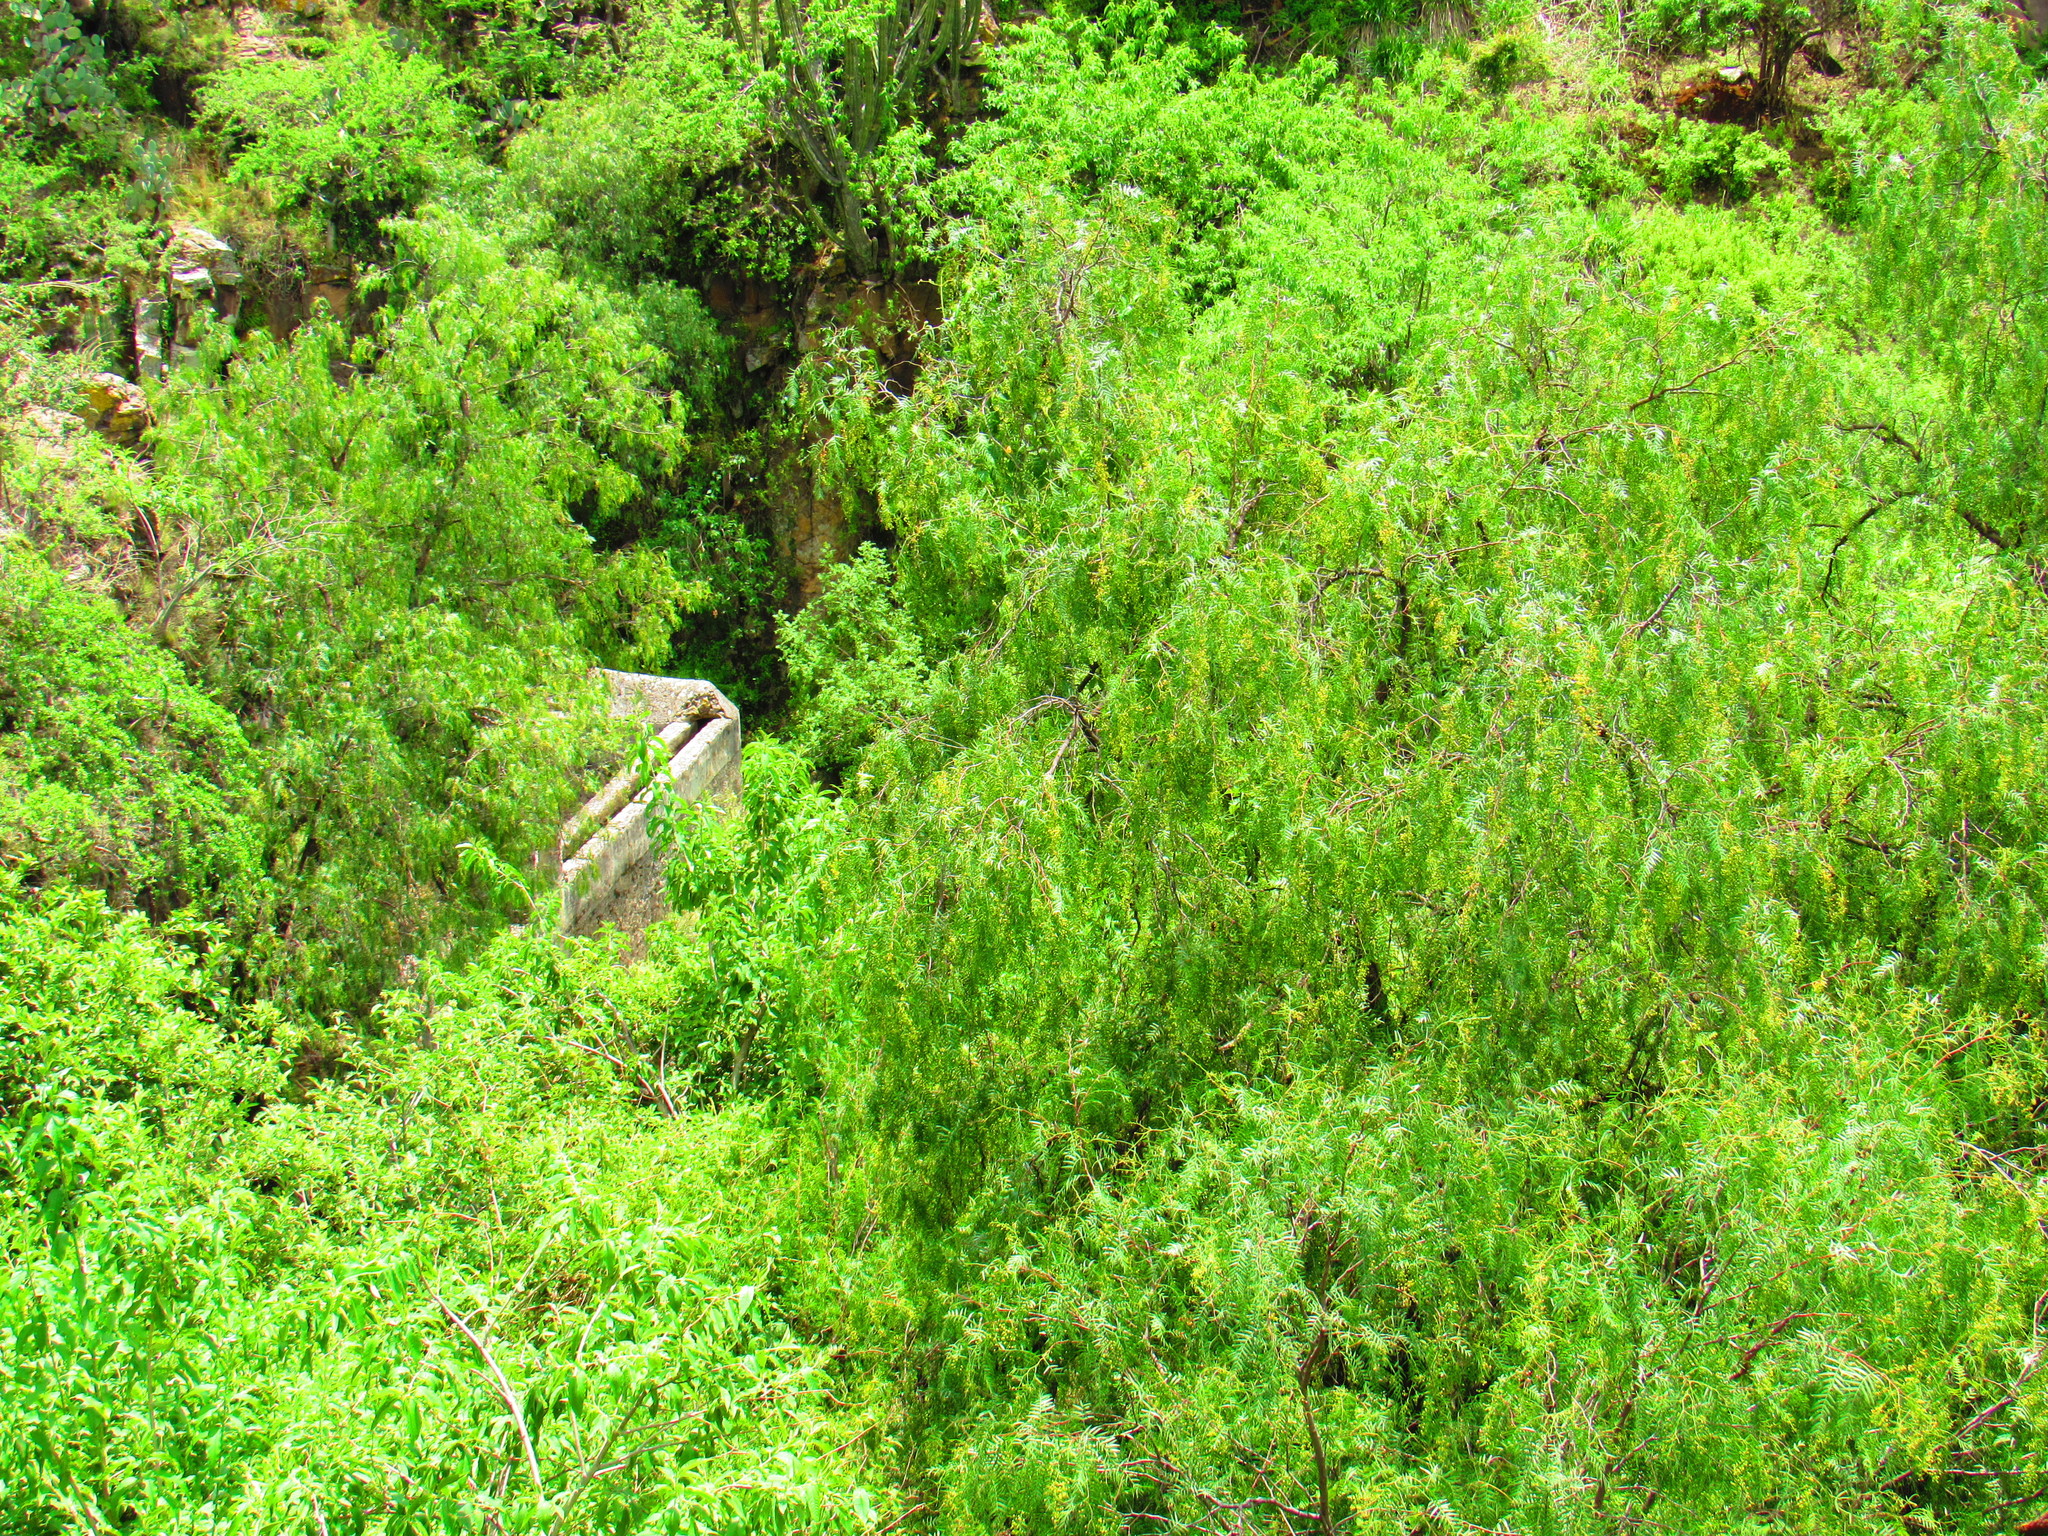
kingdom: Plantae
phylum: Tracheophyta
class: Magnoliopsida
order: Sapindales
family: Anacardiaceae
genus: Schinus
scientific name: Schinus molle
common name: Peruvian peppertree
